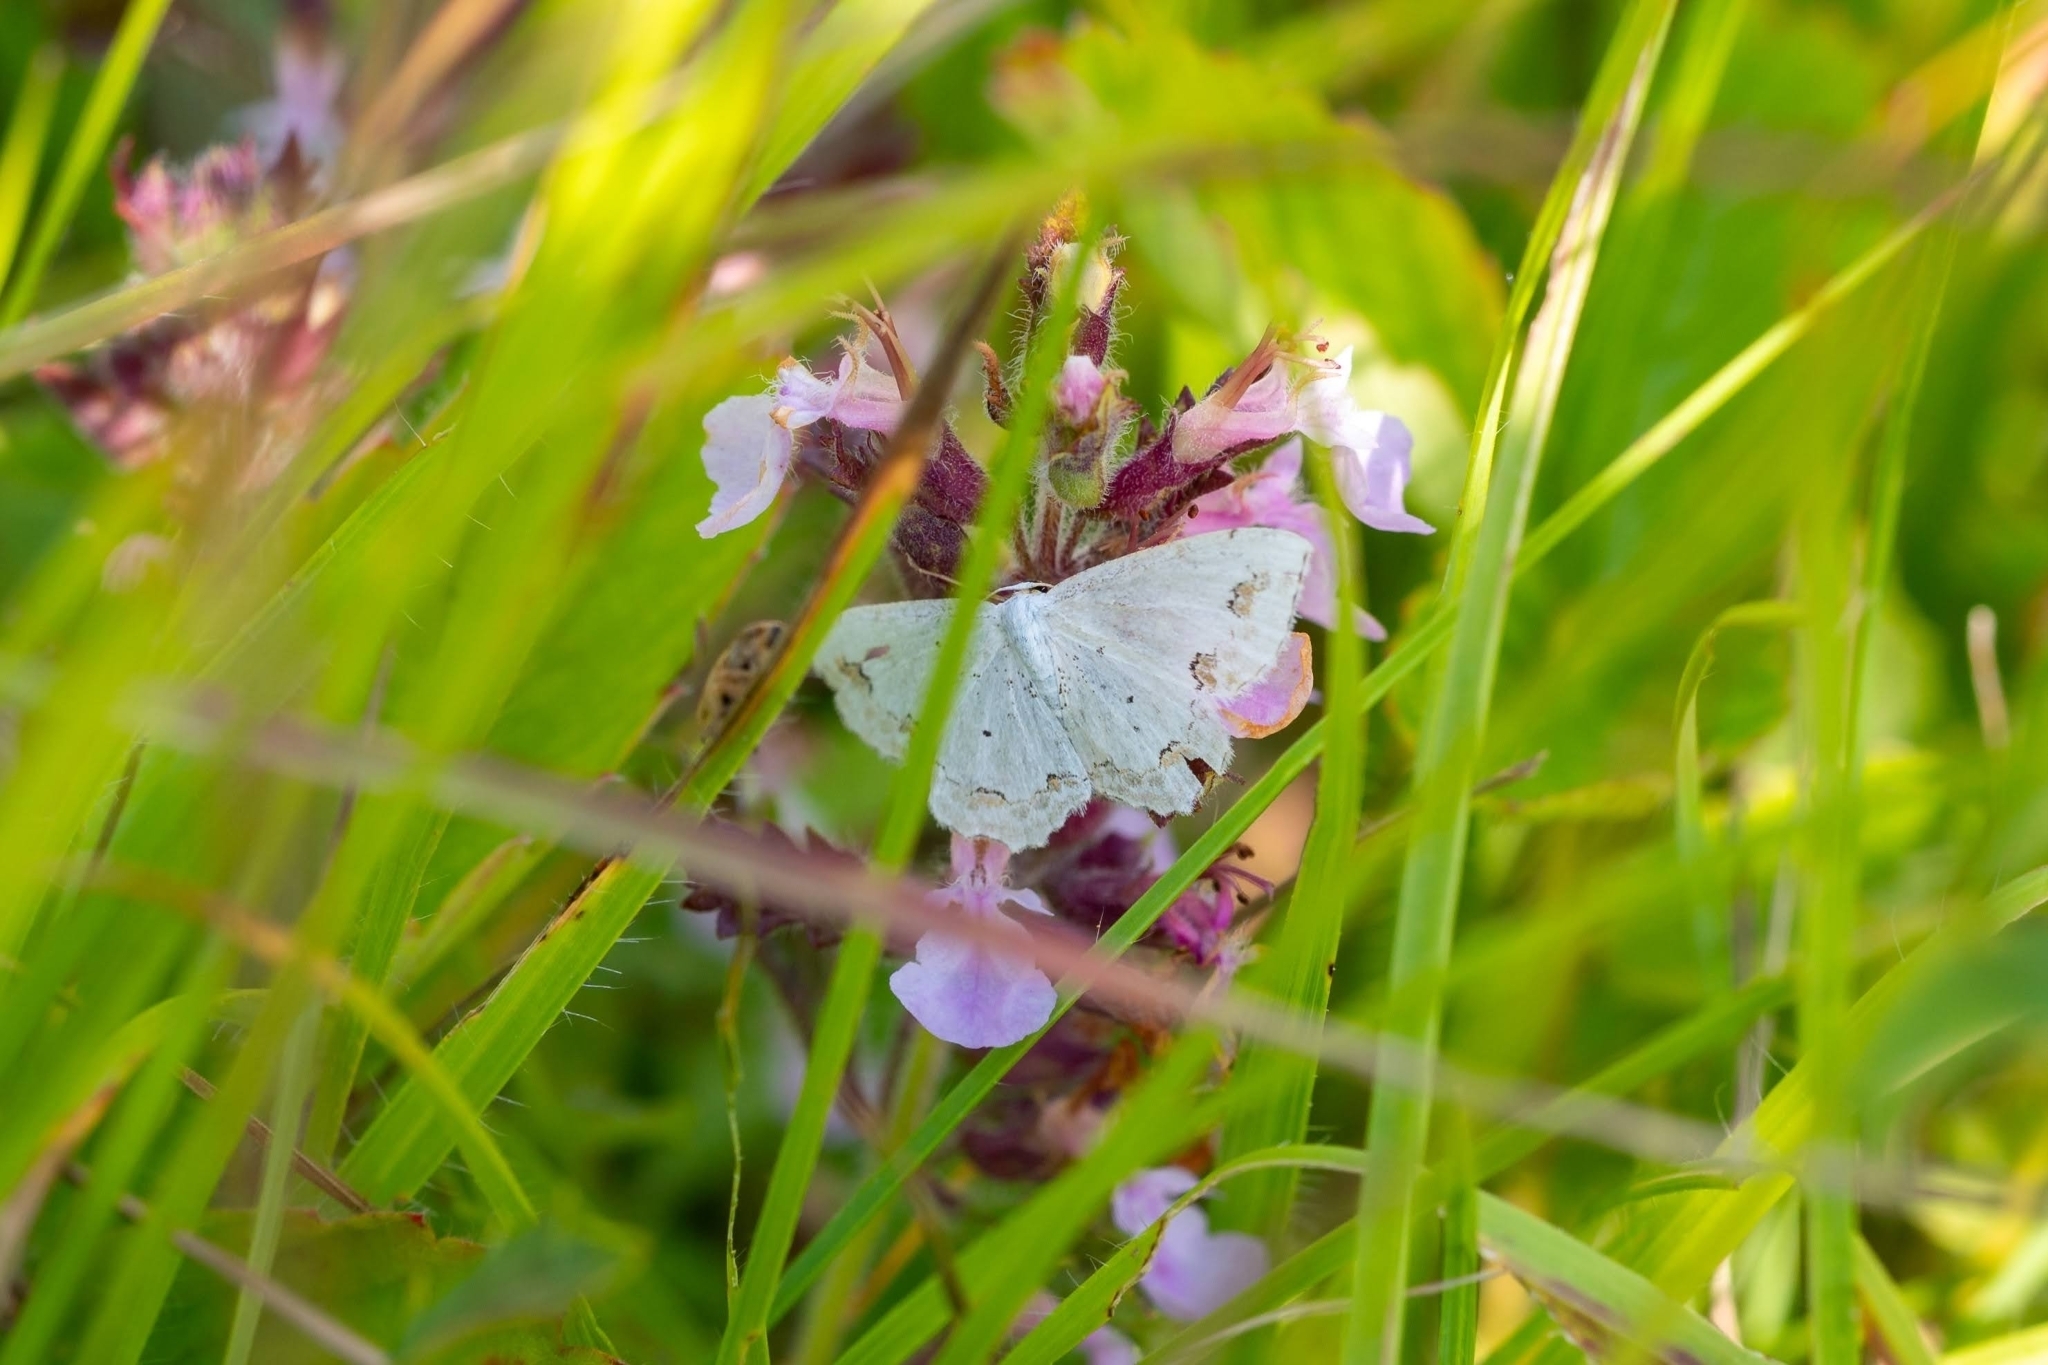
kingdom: Animalia
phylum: Arthropoda
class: Insecta
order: Lepidoptera
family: Geometridae
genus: Scopula
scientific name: Scopula ornata
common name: Lace border
